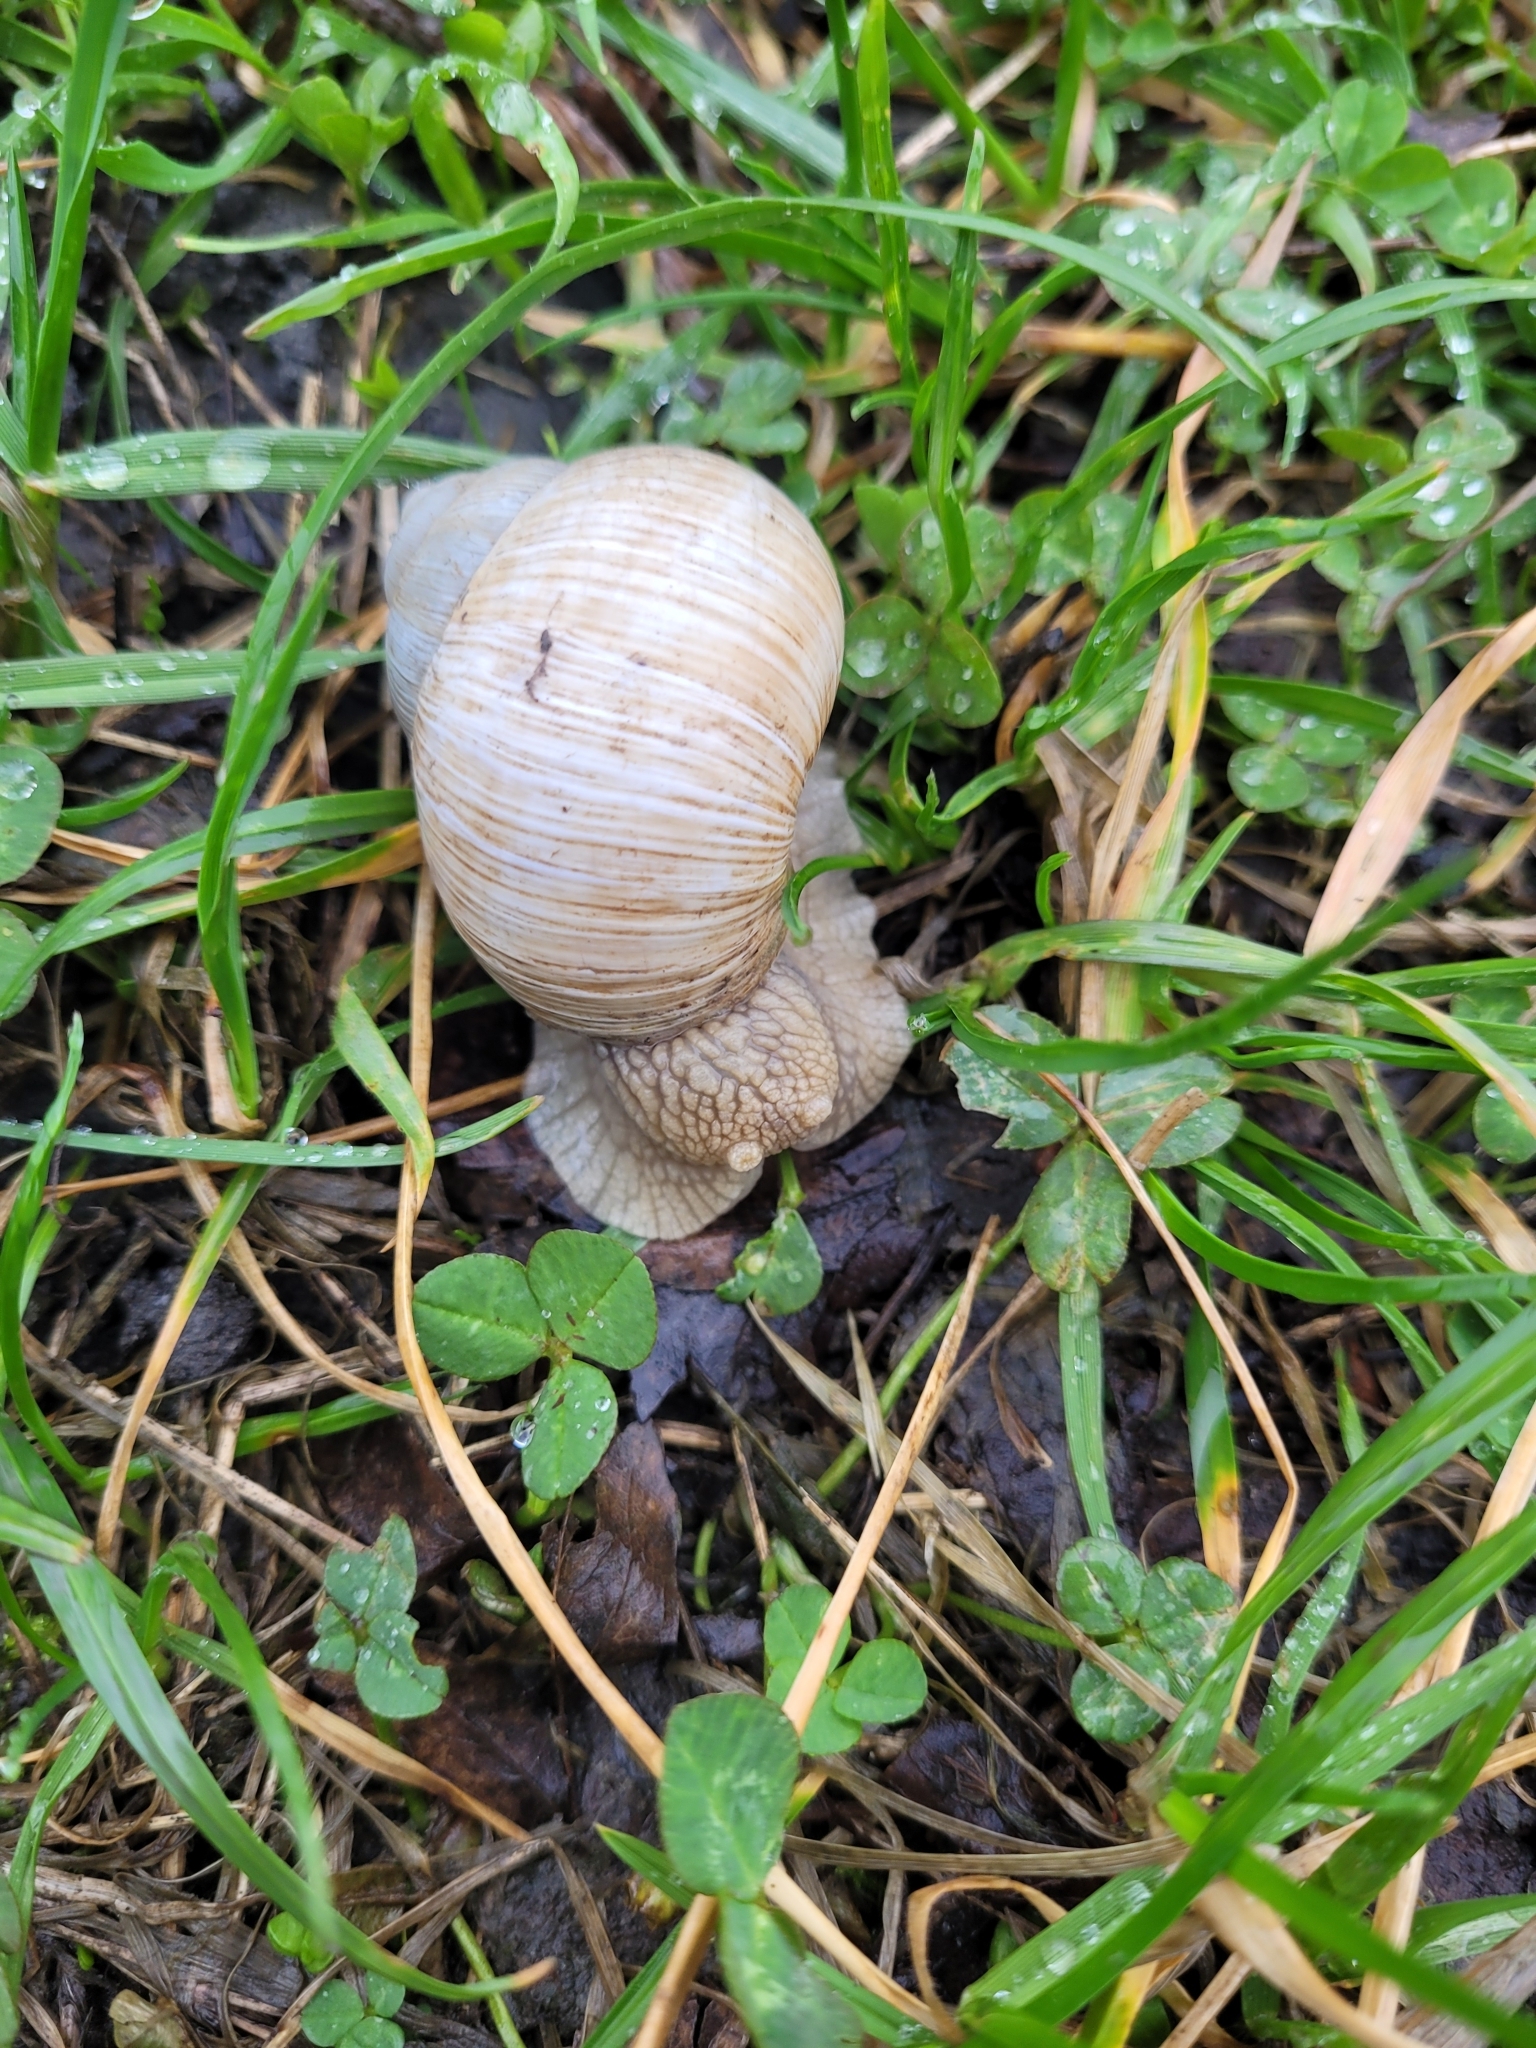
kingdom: Animalia
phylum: Mollusca
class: Gastropoda
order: Stylommatophora
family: Helicidae
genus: Helix
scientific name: Helix pomatia
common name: Roman snail
